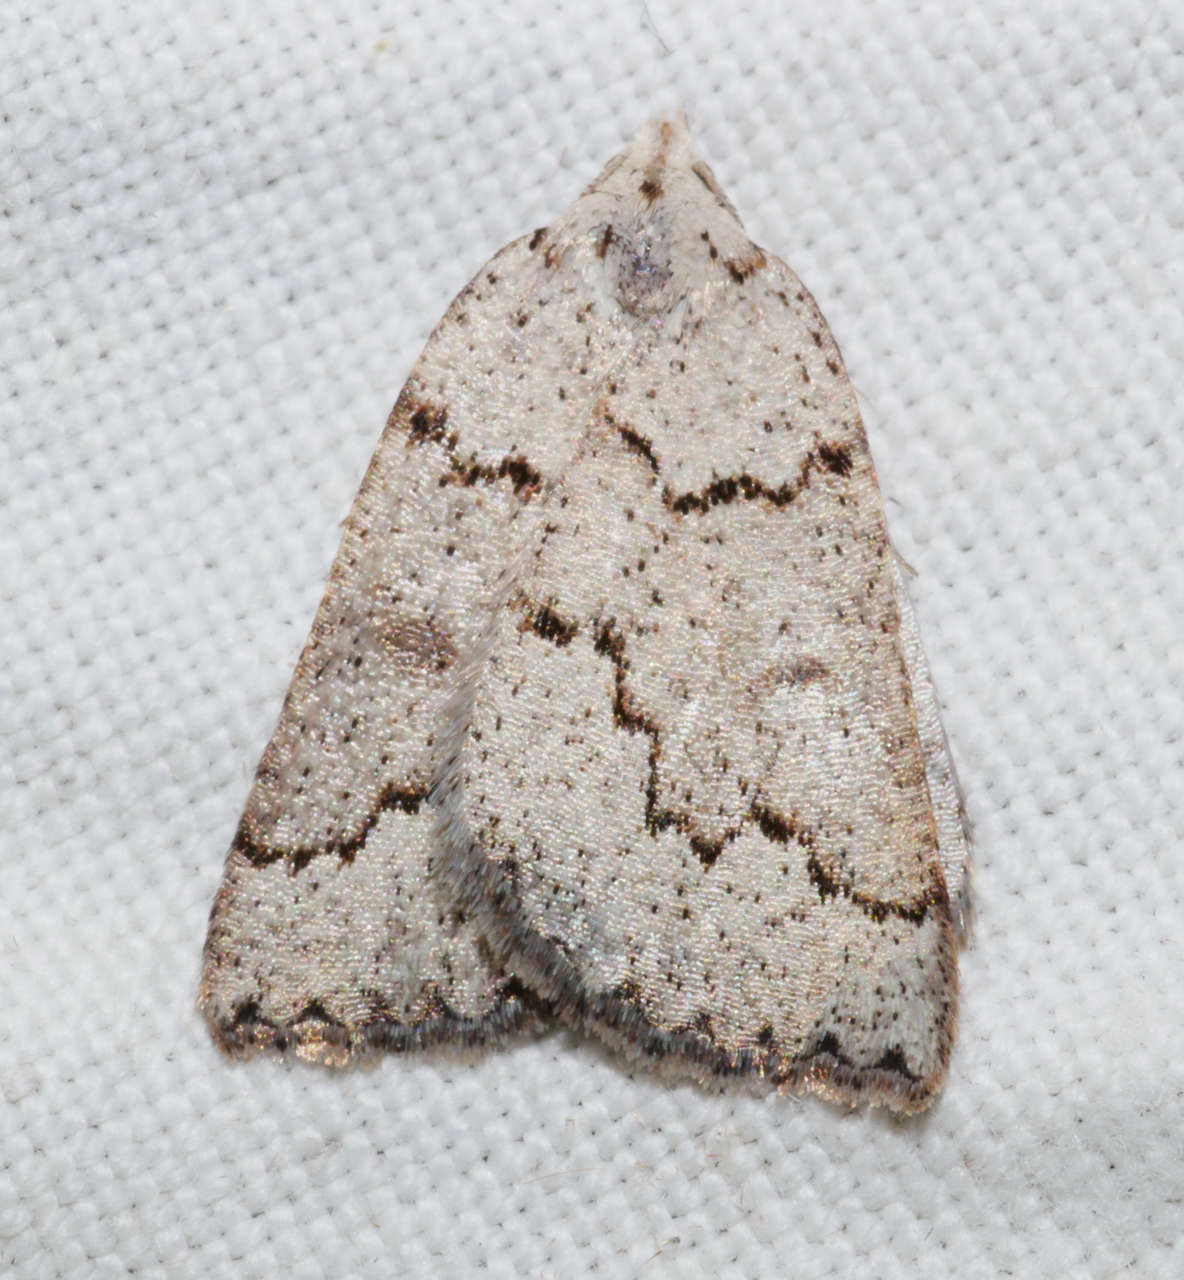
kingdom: Animalia
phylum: Arthropoda
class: Insecta
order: Lepidoptera
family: Geometridae
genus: Amelora
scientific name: Amelora goniota
